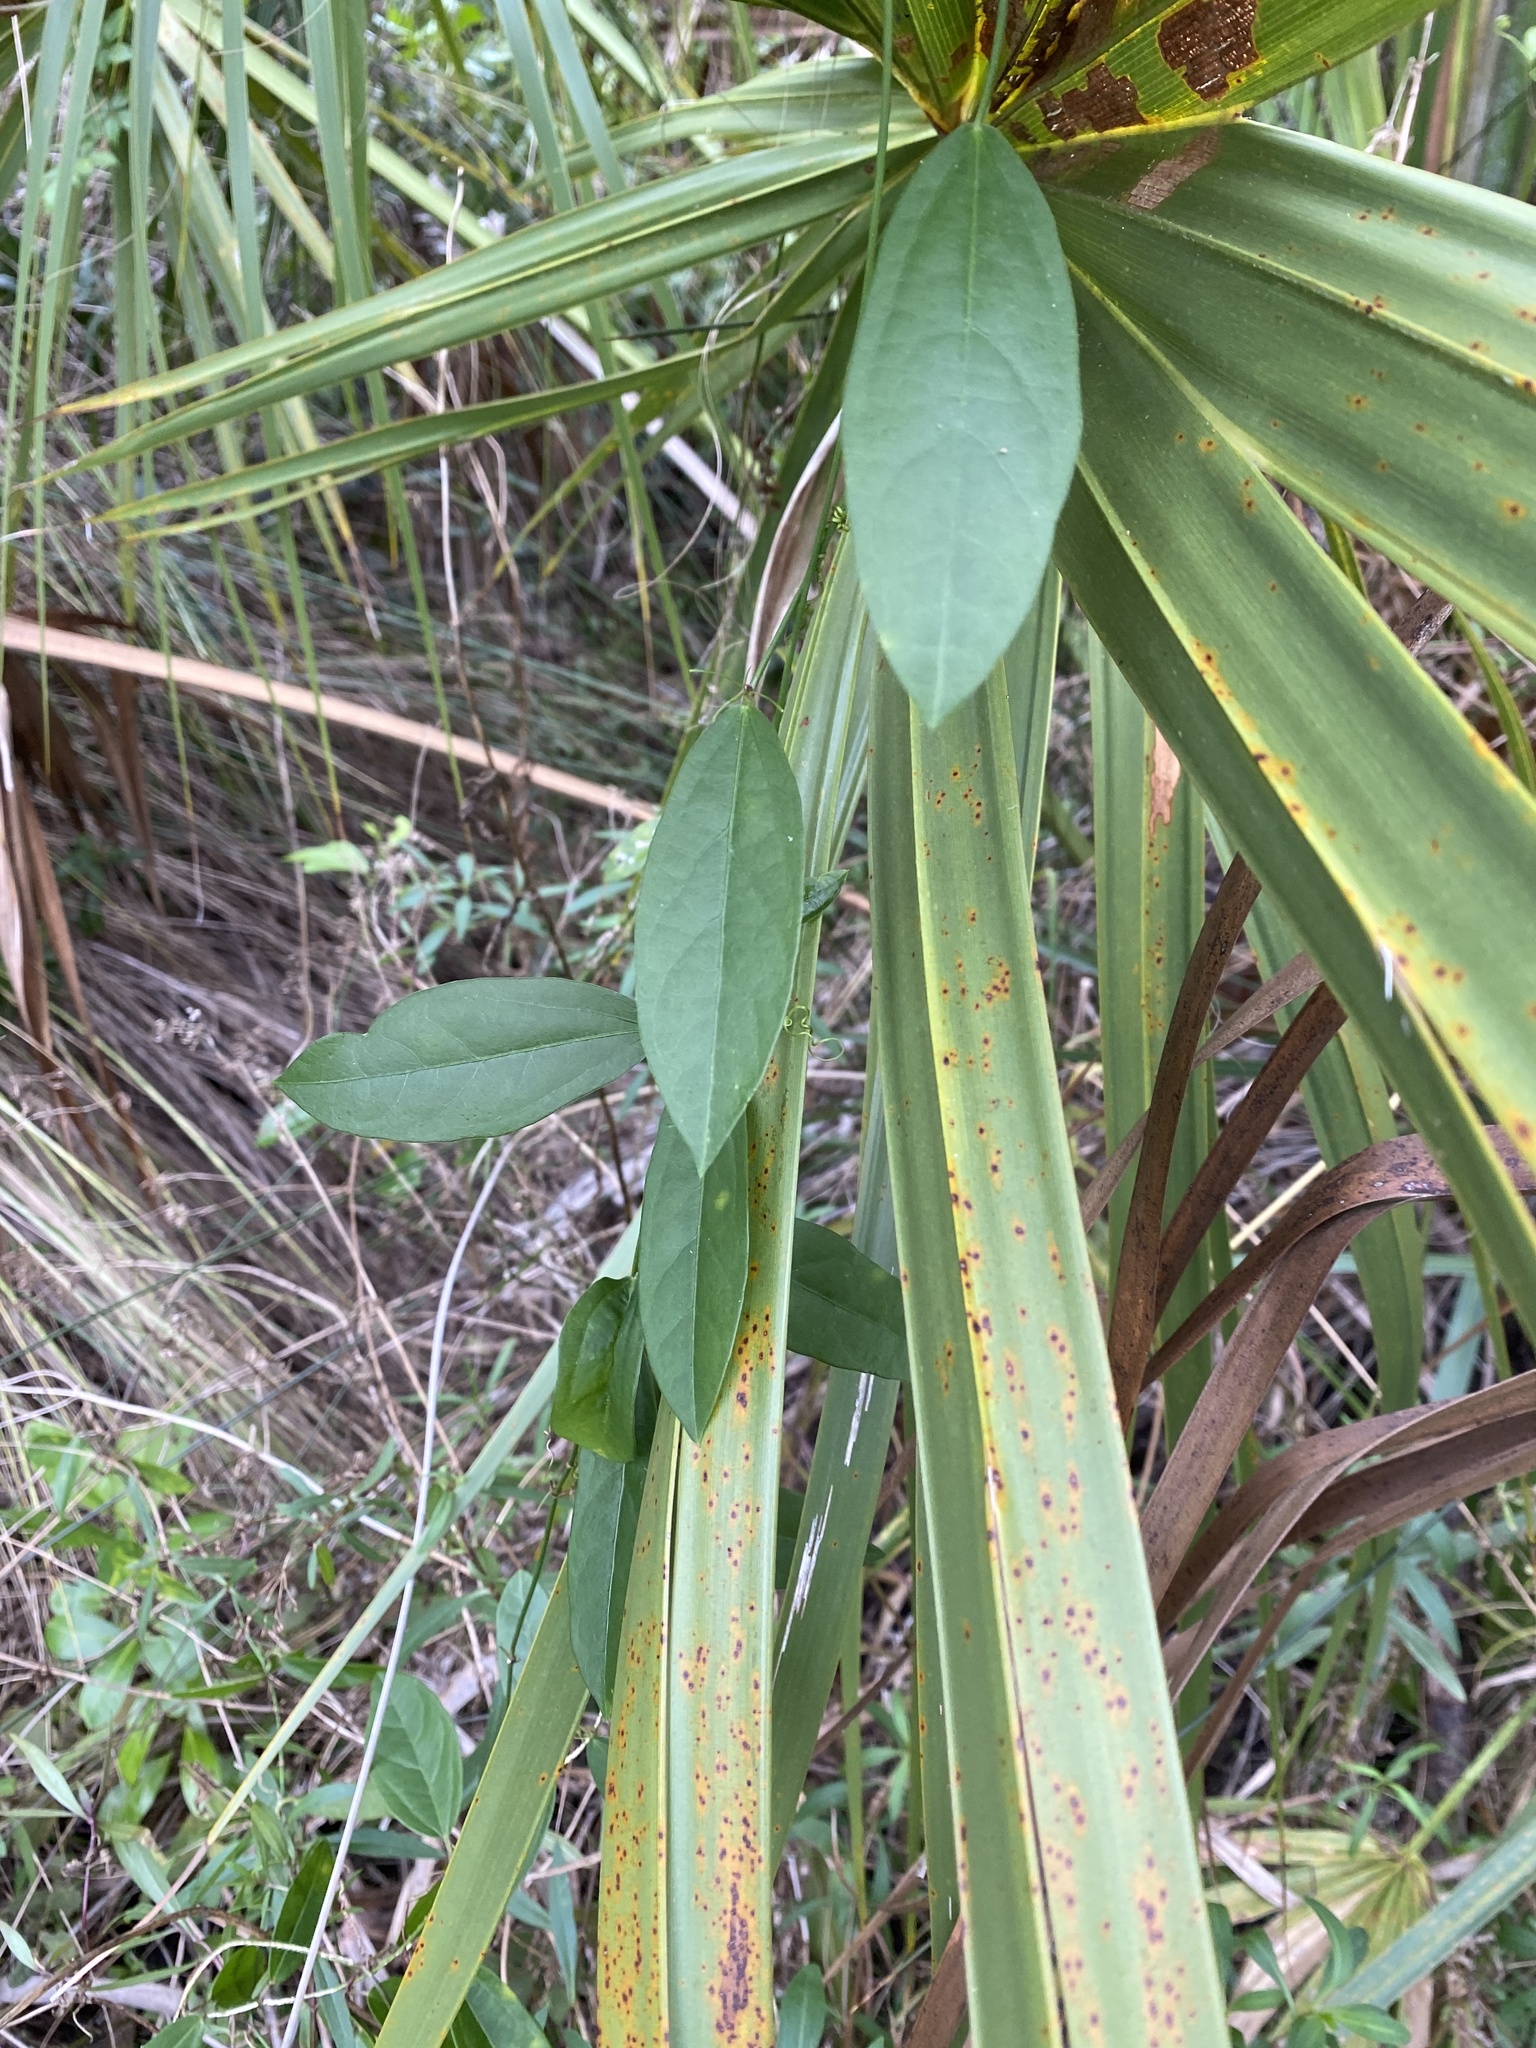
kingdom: Plantae
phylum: Tracheophyta
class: Magnoliopsida
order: Malpighiales
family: Passifloraceae
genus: Passiflora
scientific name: Passiflora pallida
